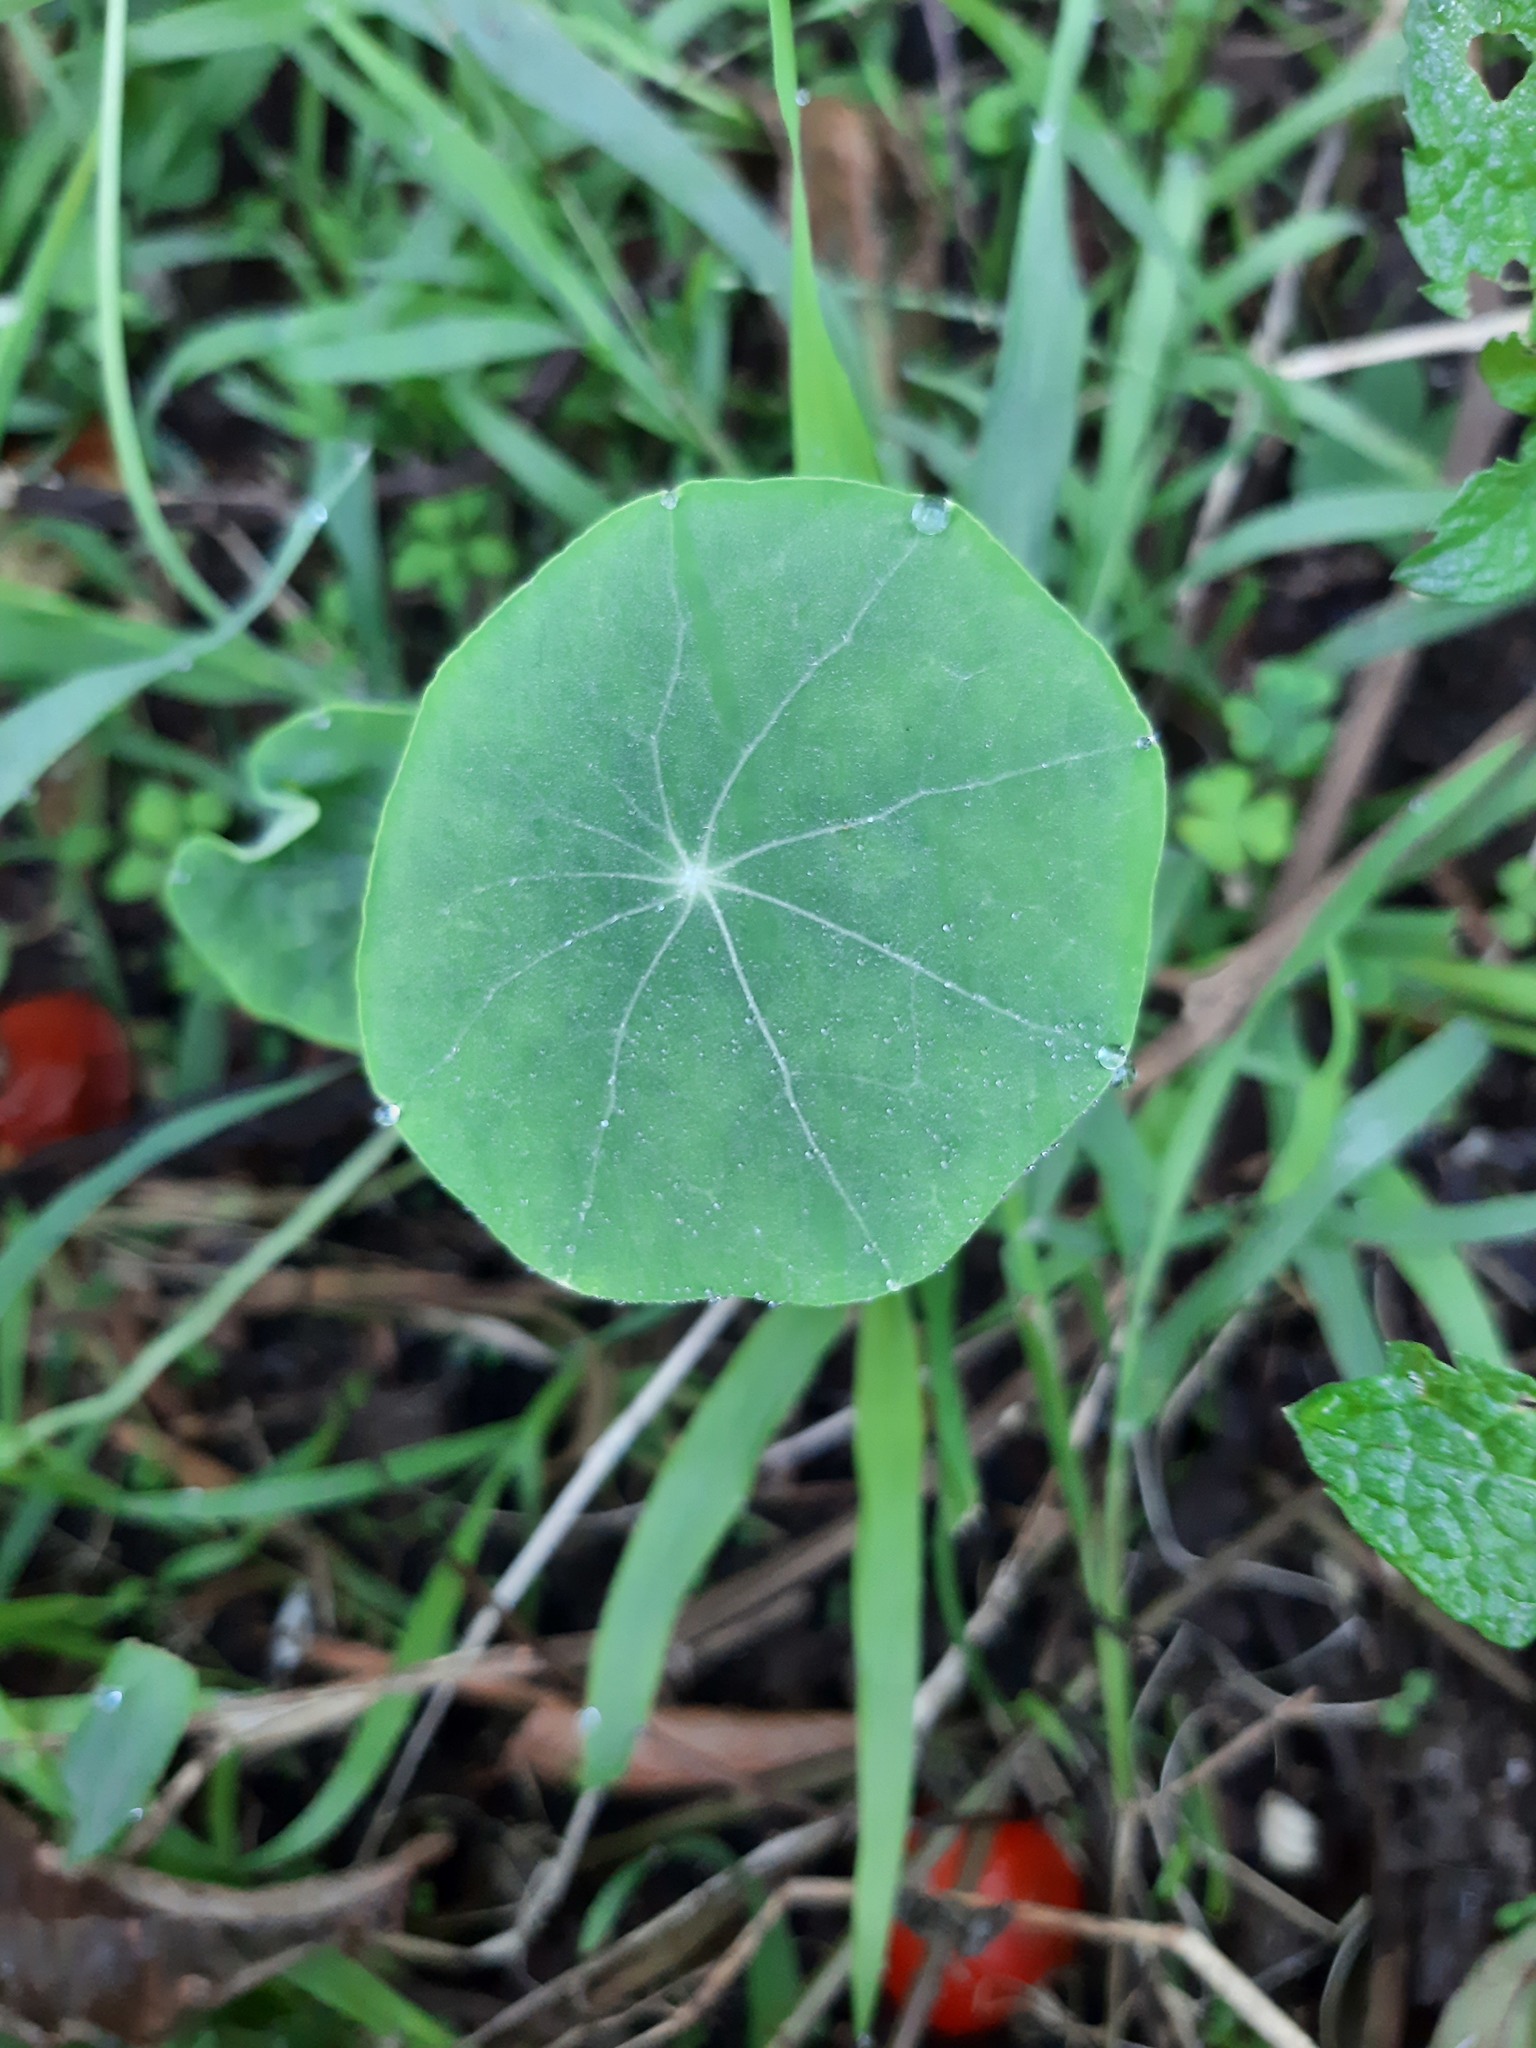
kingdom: Plantae
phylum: Tracheophyta
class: Magnoliopsida
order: Brassicales
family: Tropaeolaceae
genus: Tropaeolum
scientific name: Tropaeolum majus
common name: Nasturtium
